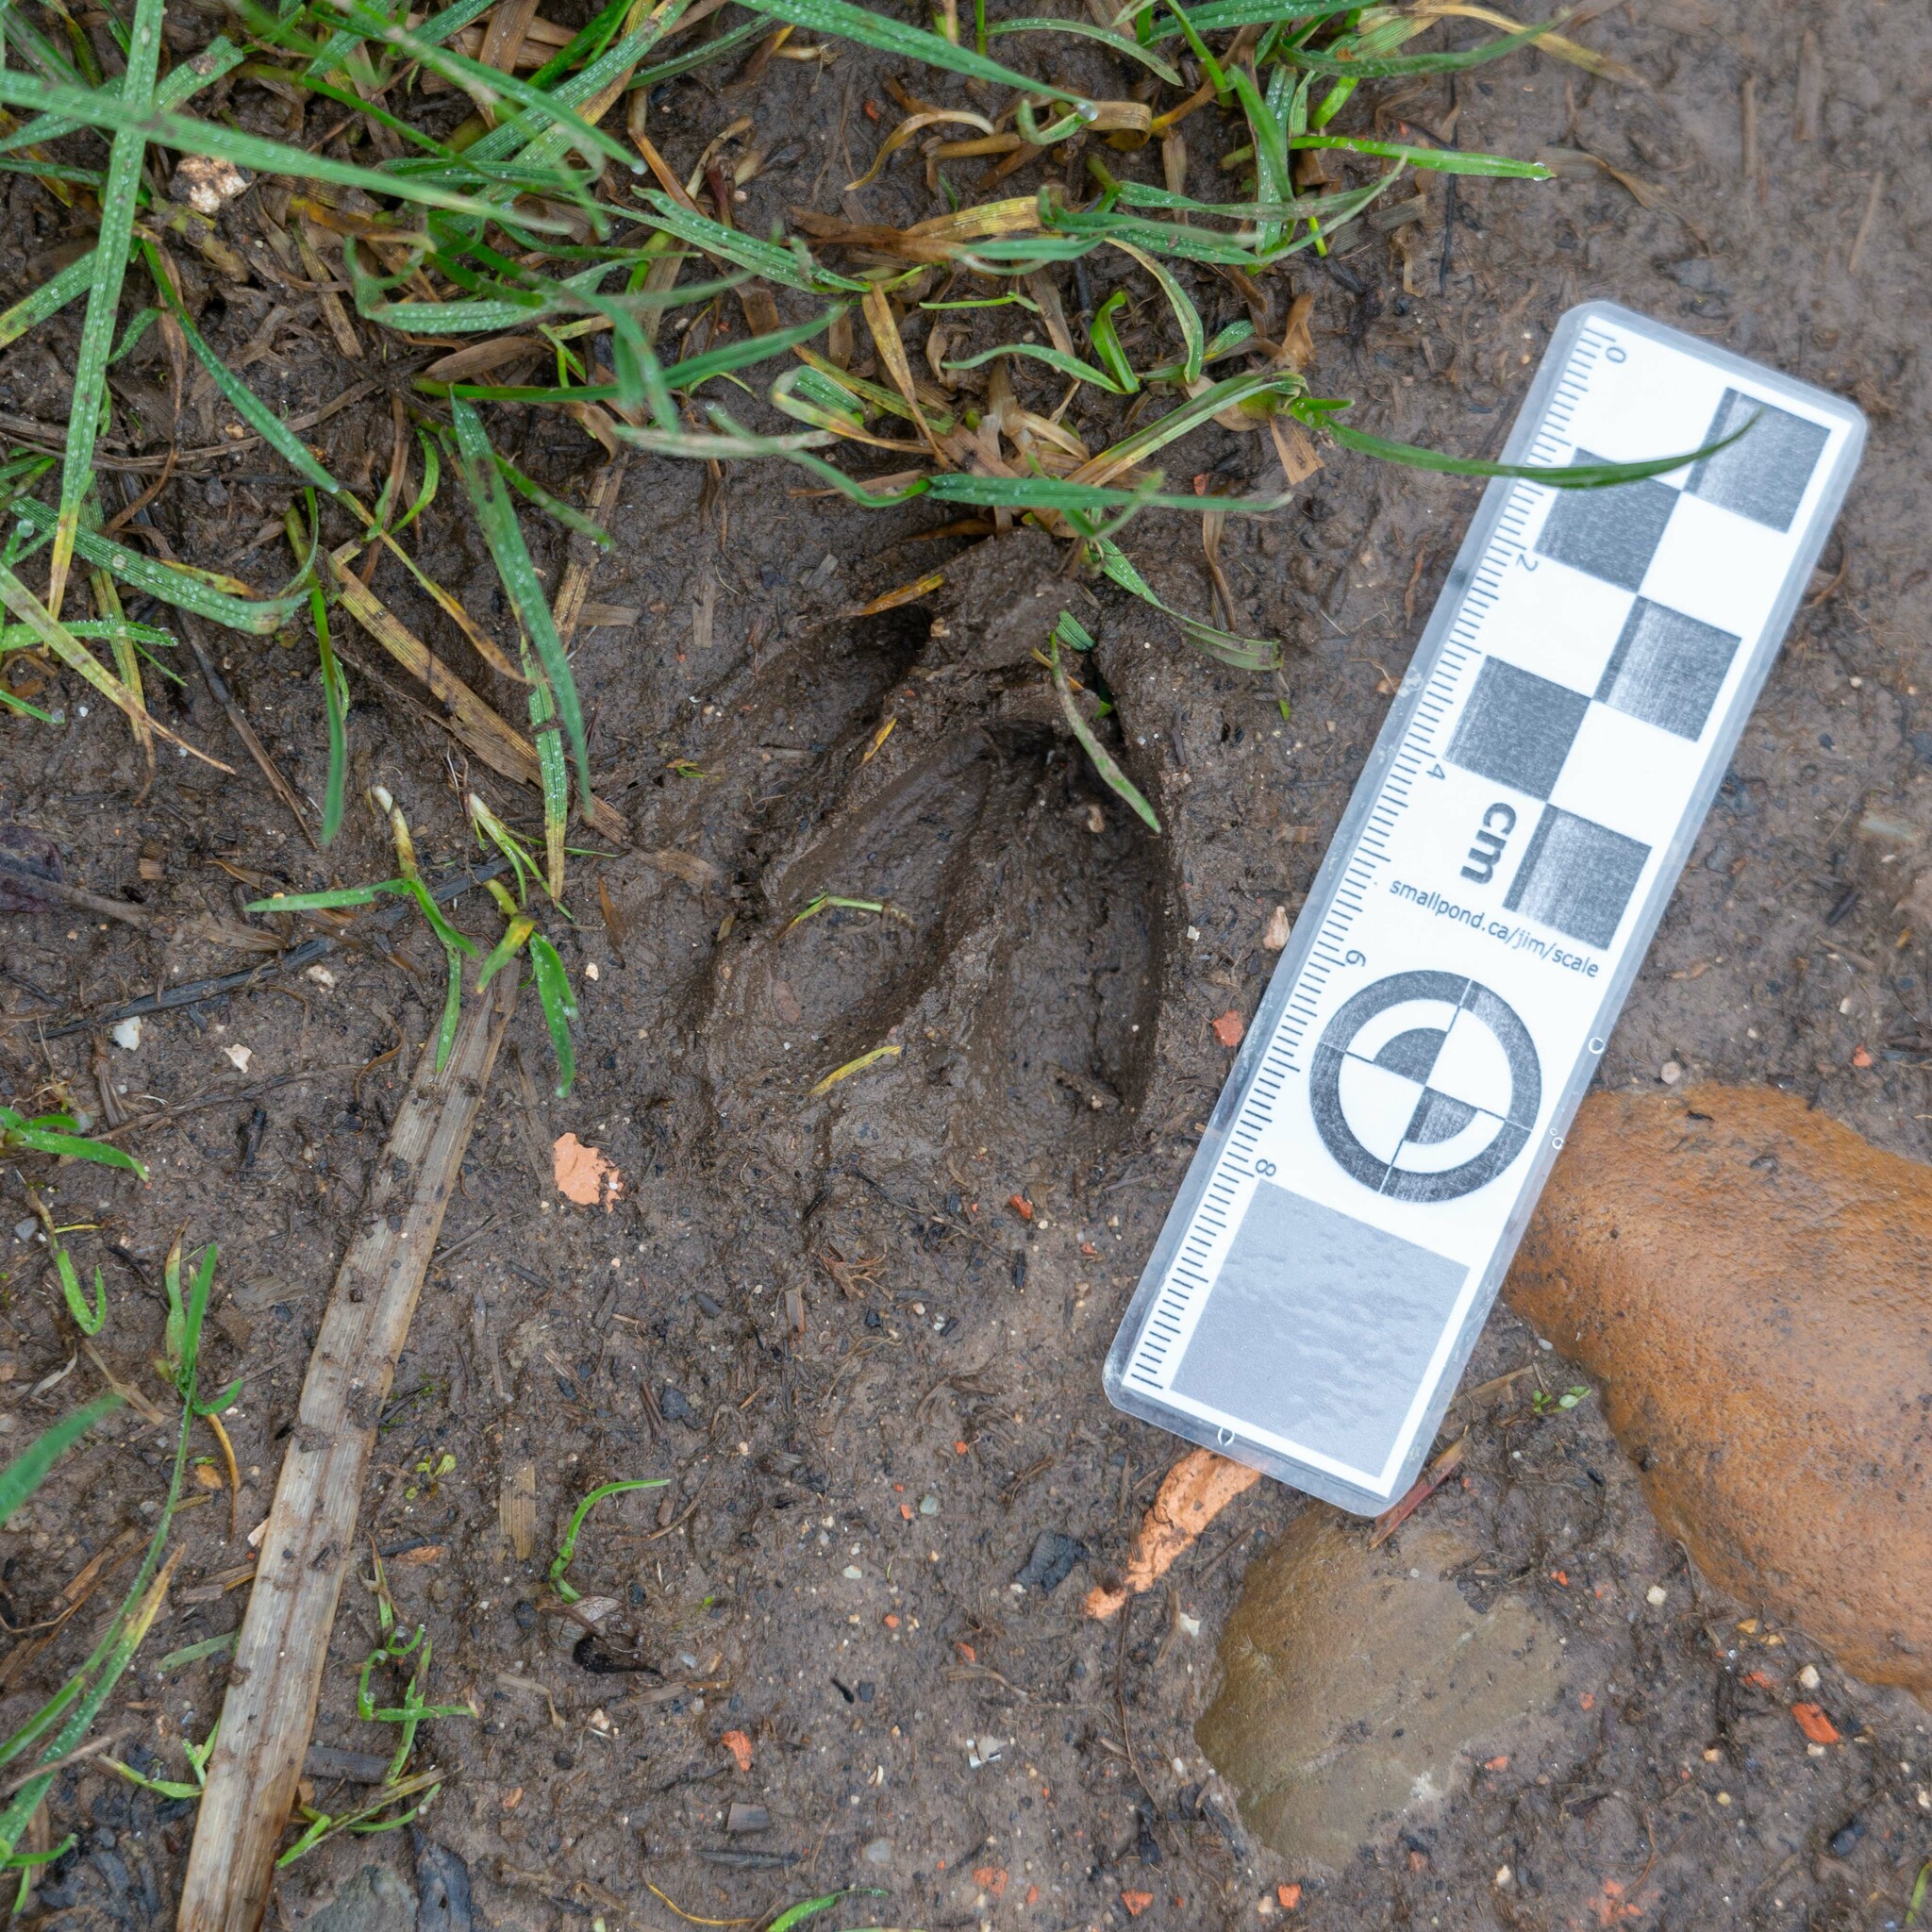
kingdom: Animalia
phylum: Chordata
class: Mammalia
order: Artiodactyla
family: Cervidae
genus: Capreolus
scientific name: Capreolus capreolus
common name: Western roe deer
